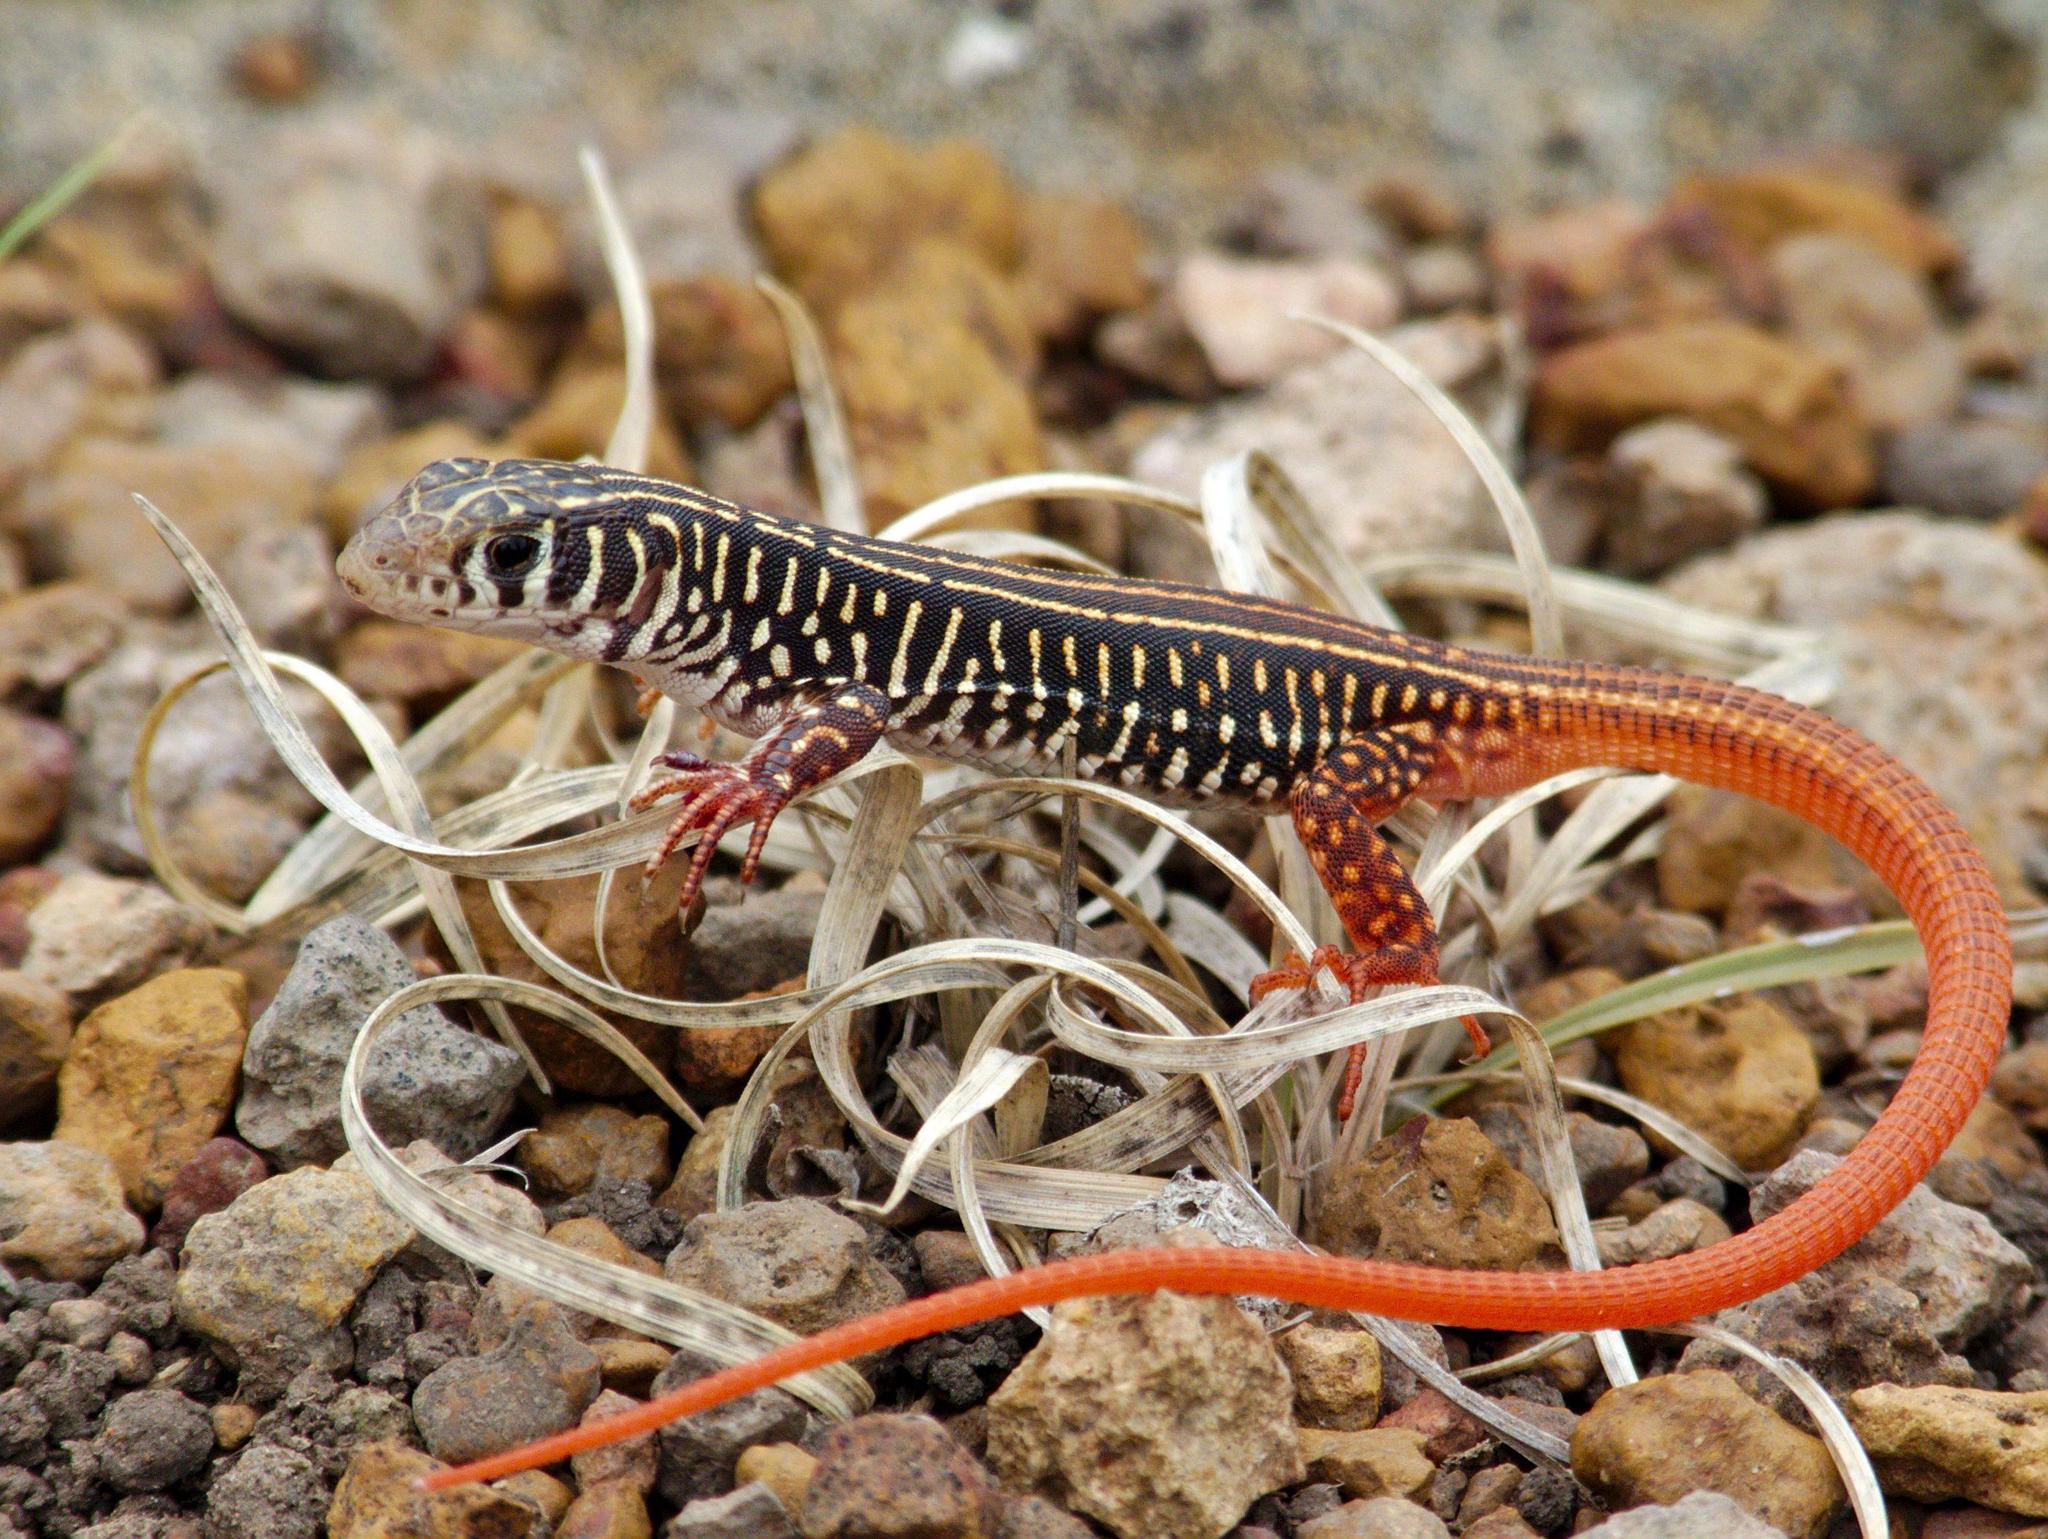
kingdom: Animalia
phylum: Chordata
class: Squamata
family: Lacertidae
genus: Nucras
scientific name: Nucras ornata
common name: Ornate sandveld lizard
